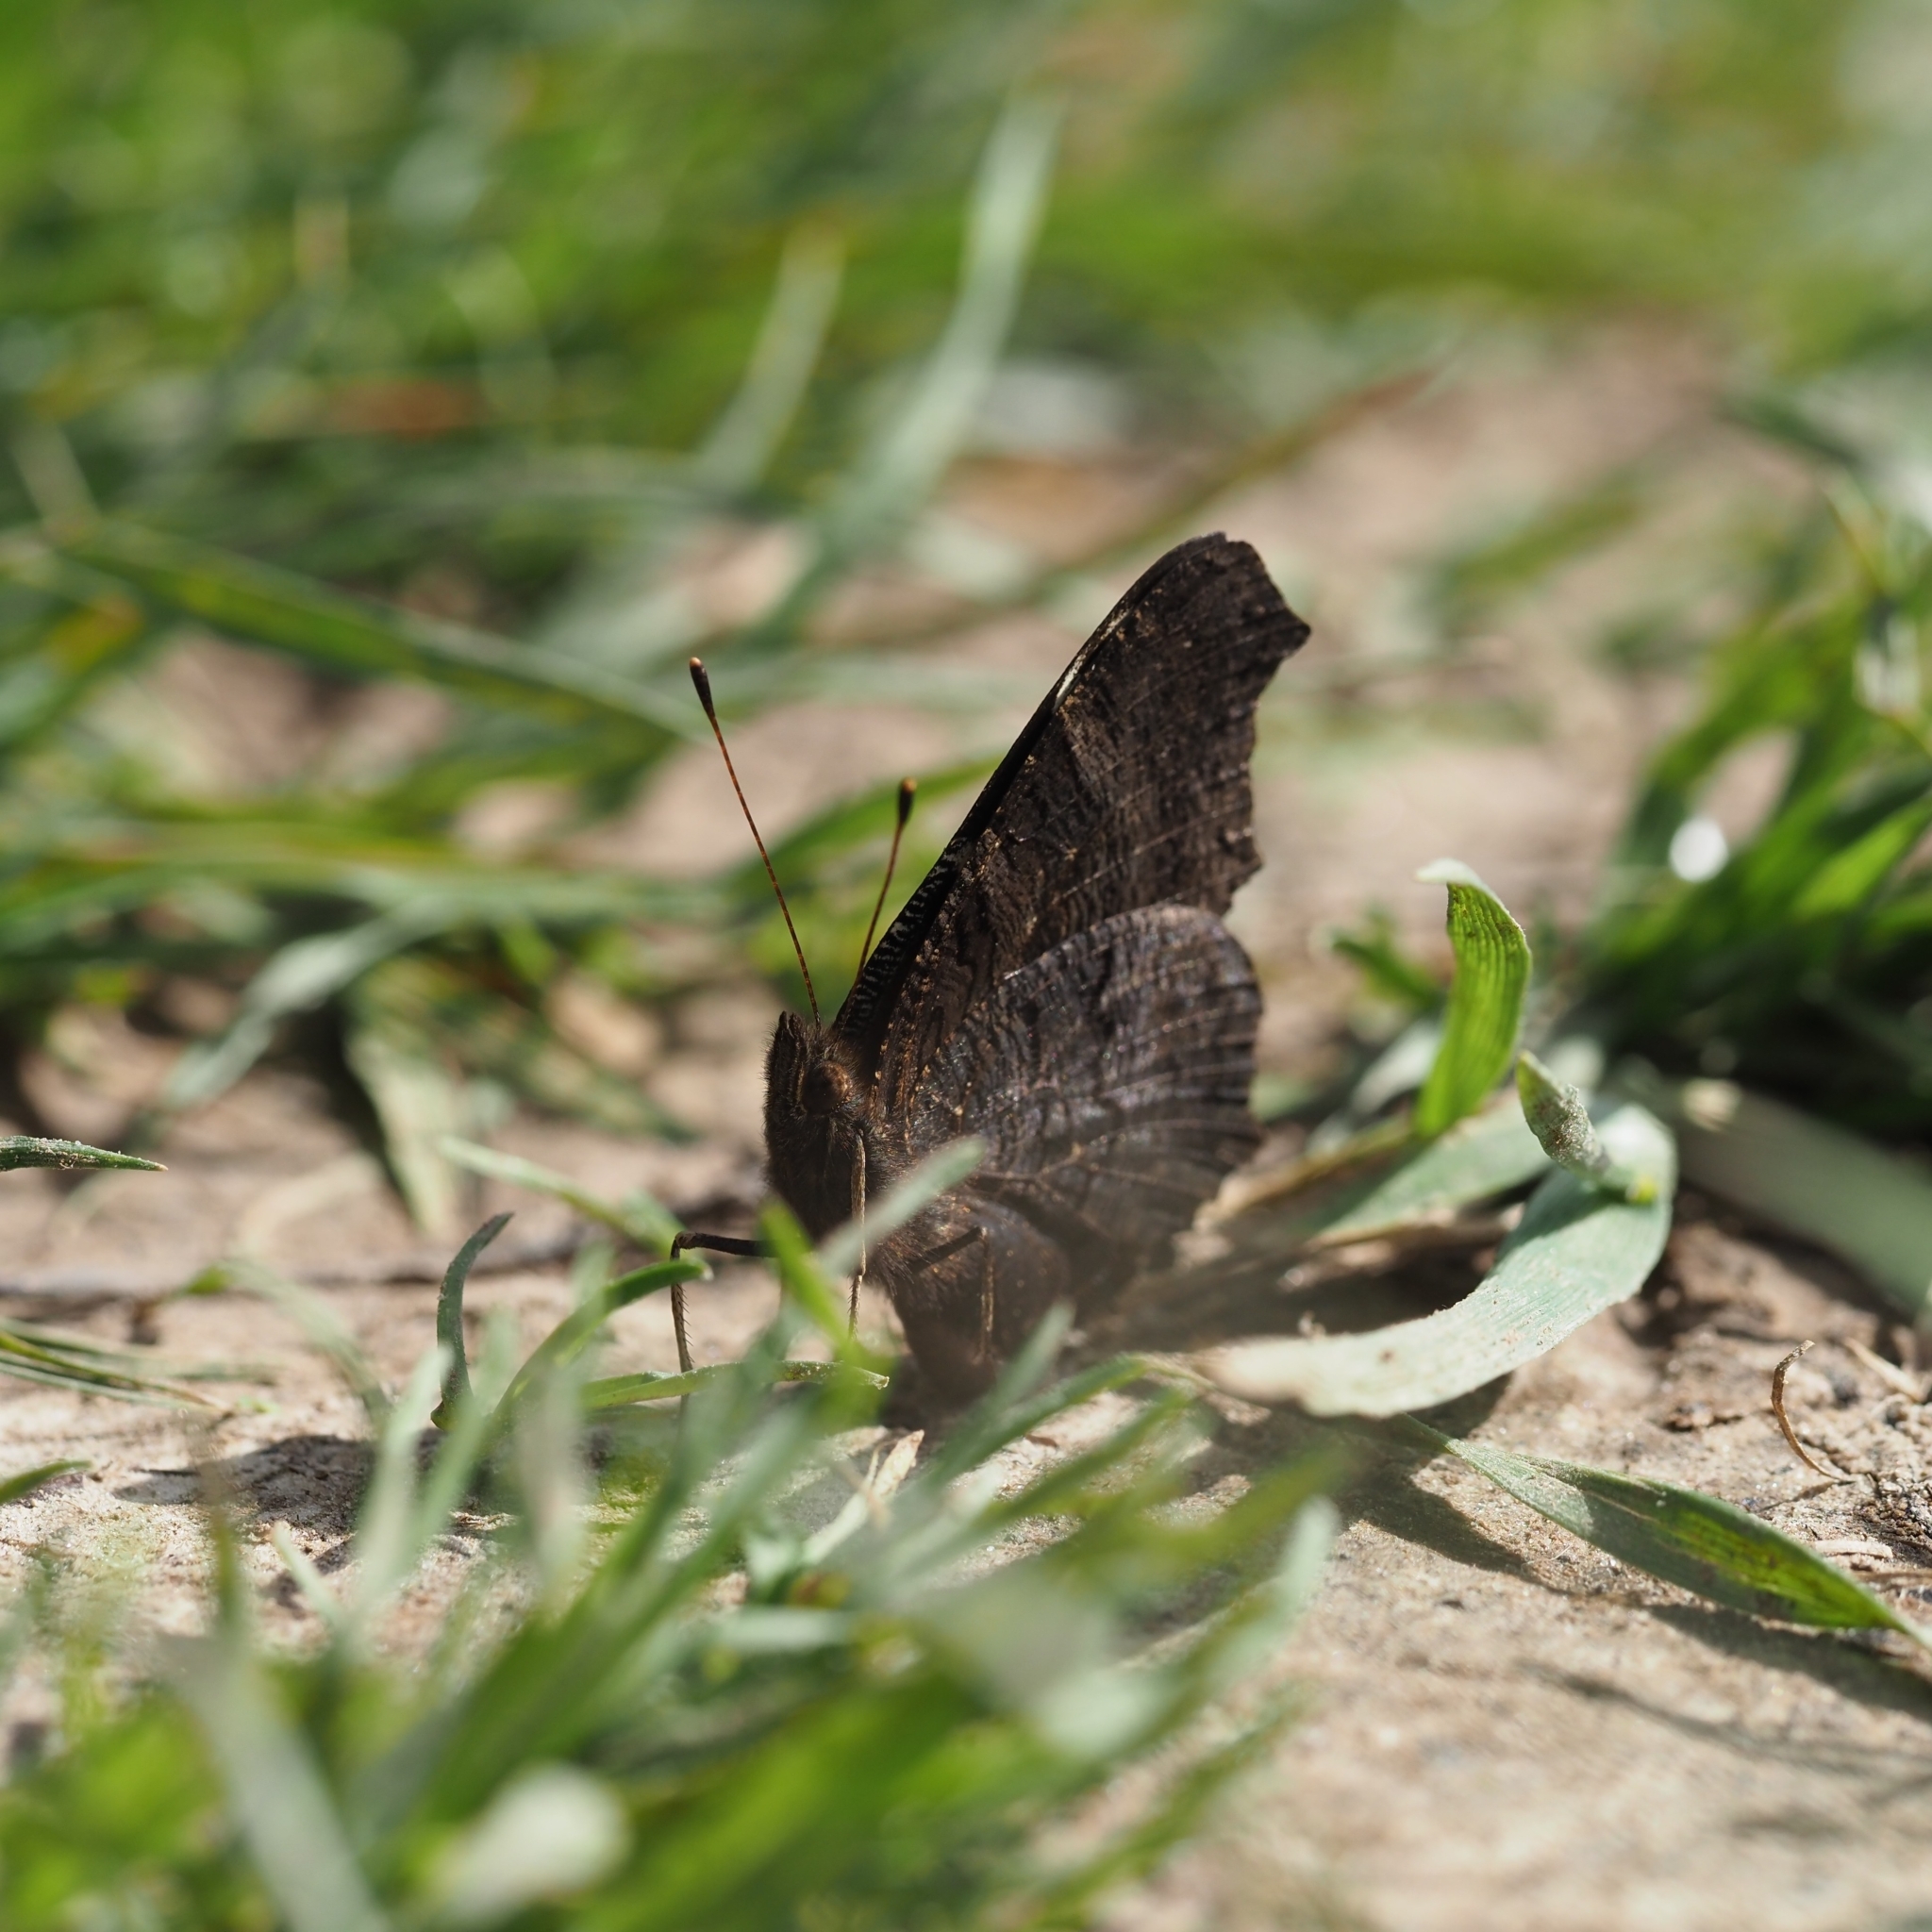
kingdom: Animalia
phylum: Arthropoda
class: Insecta
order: Lepidoptera
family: Nymphalidae
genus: Aglais
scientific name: Aglais io
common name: Peacock
